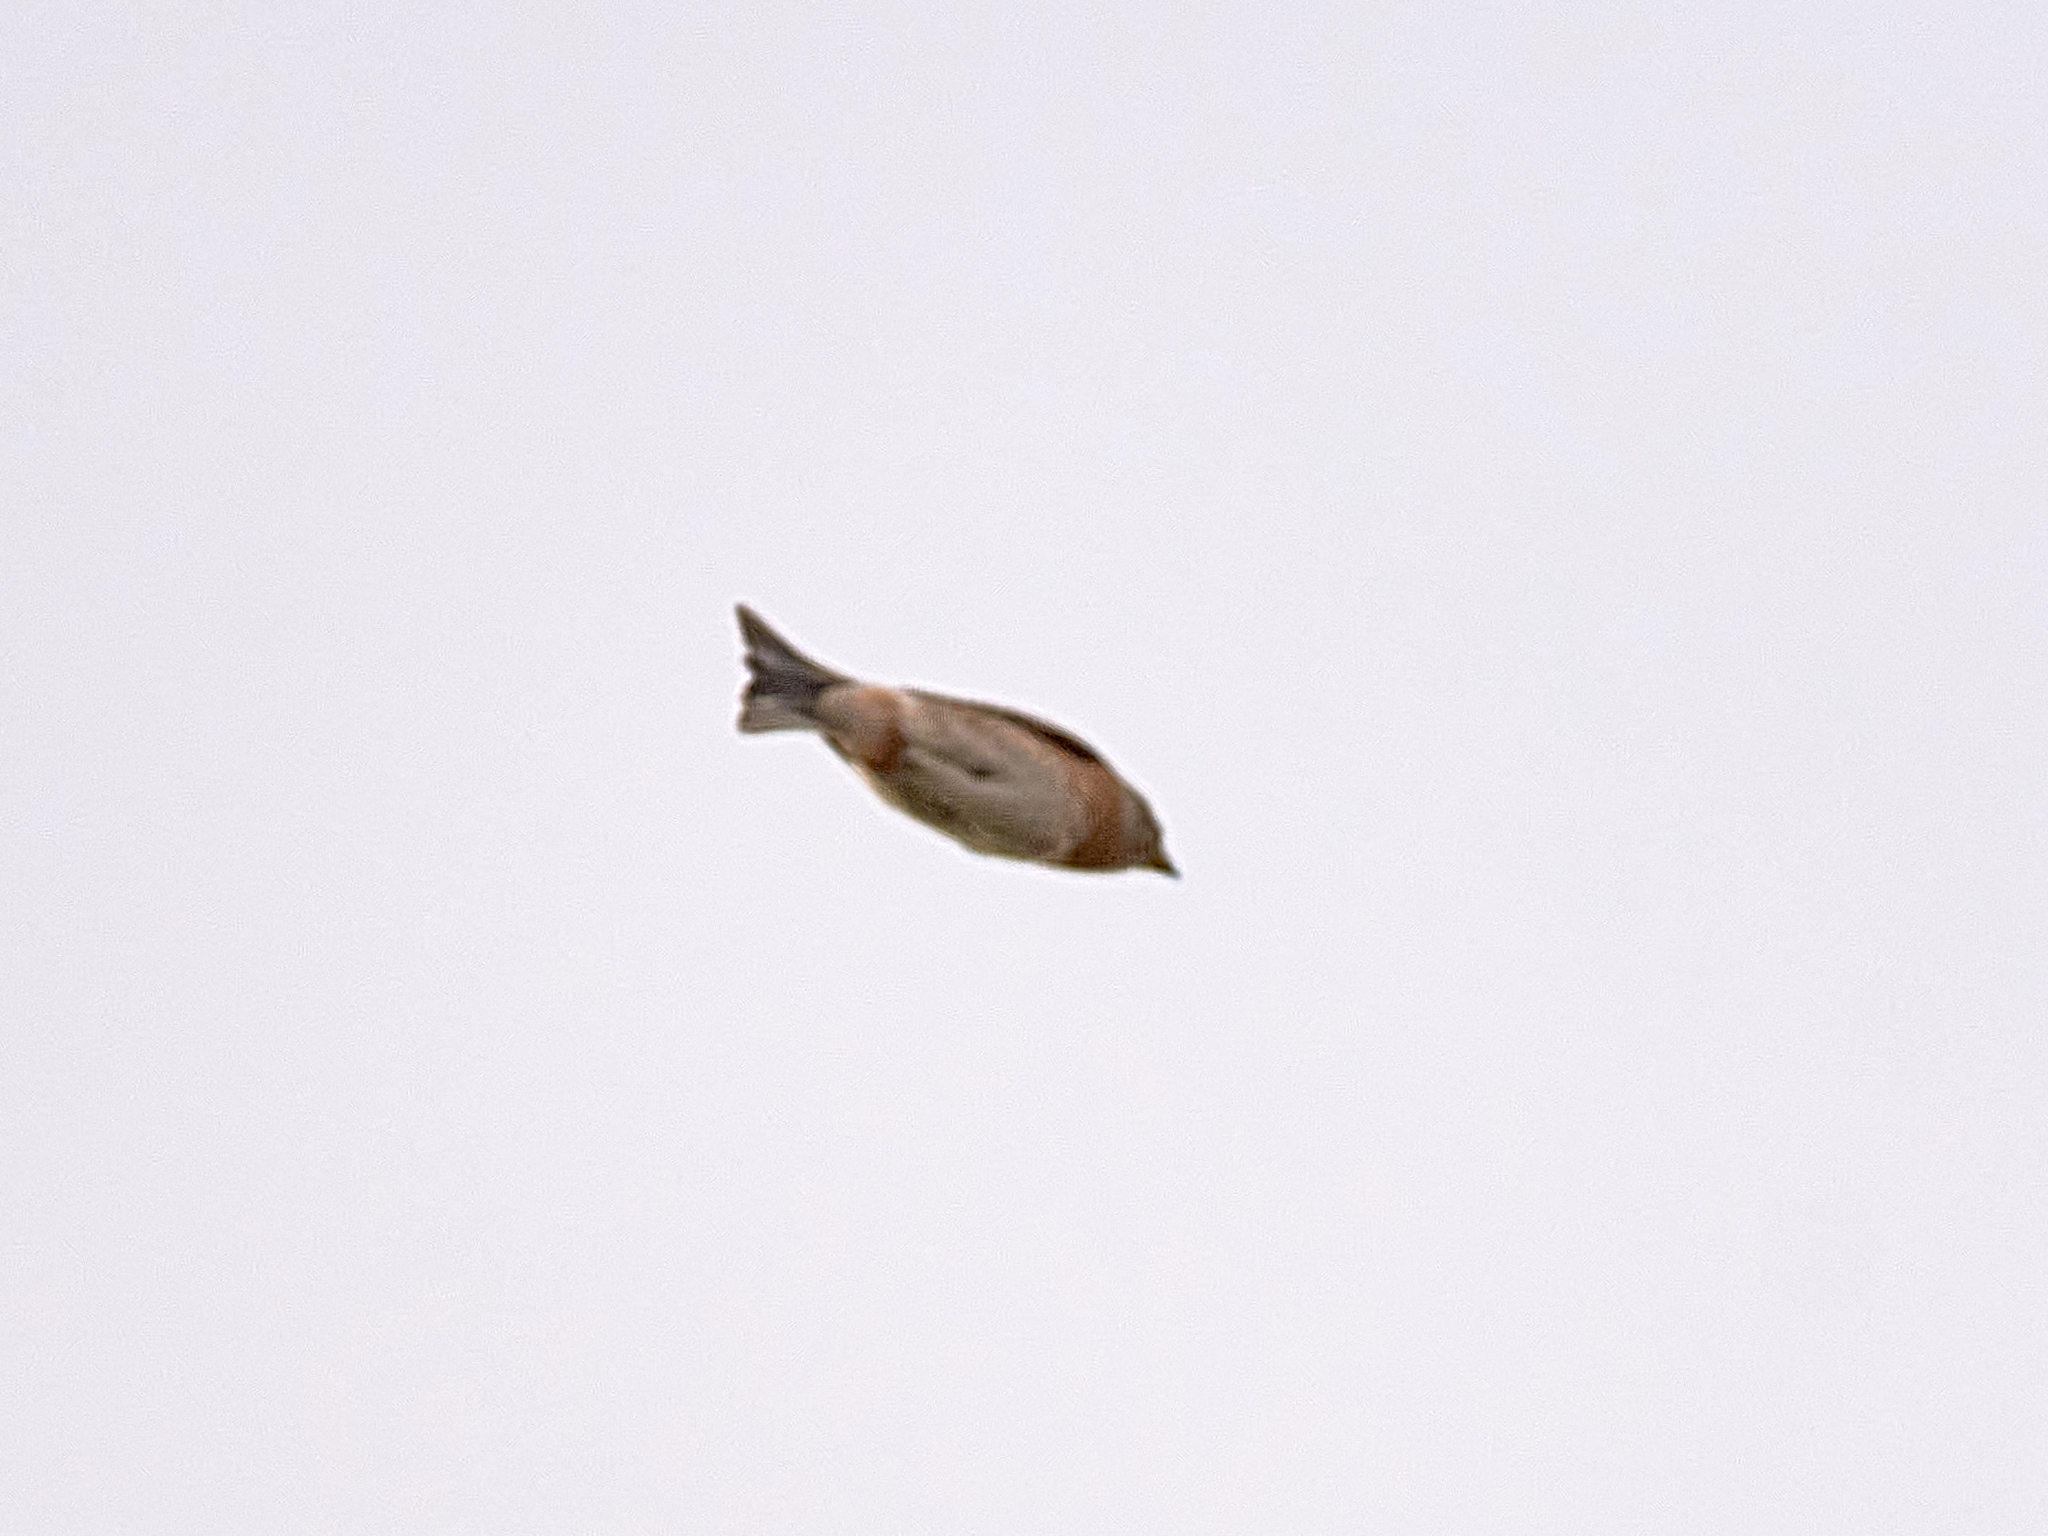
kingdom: Animalia
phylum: Chordata
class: Aves
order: Passeriformes
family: Fringillidae
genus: Fringilla
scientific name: Fringilla montifringilla
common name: Brambling
